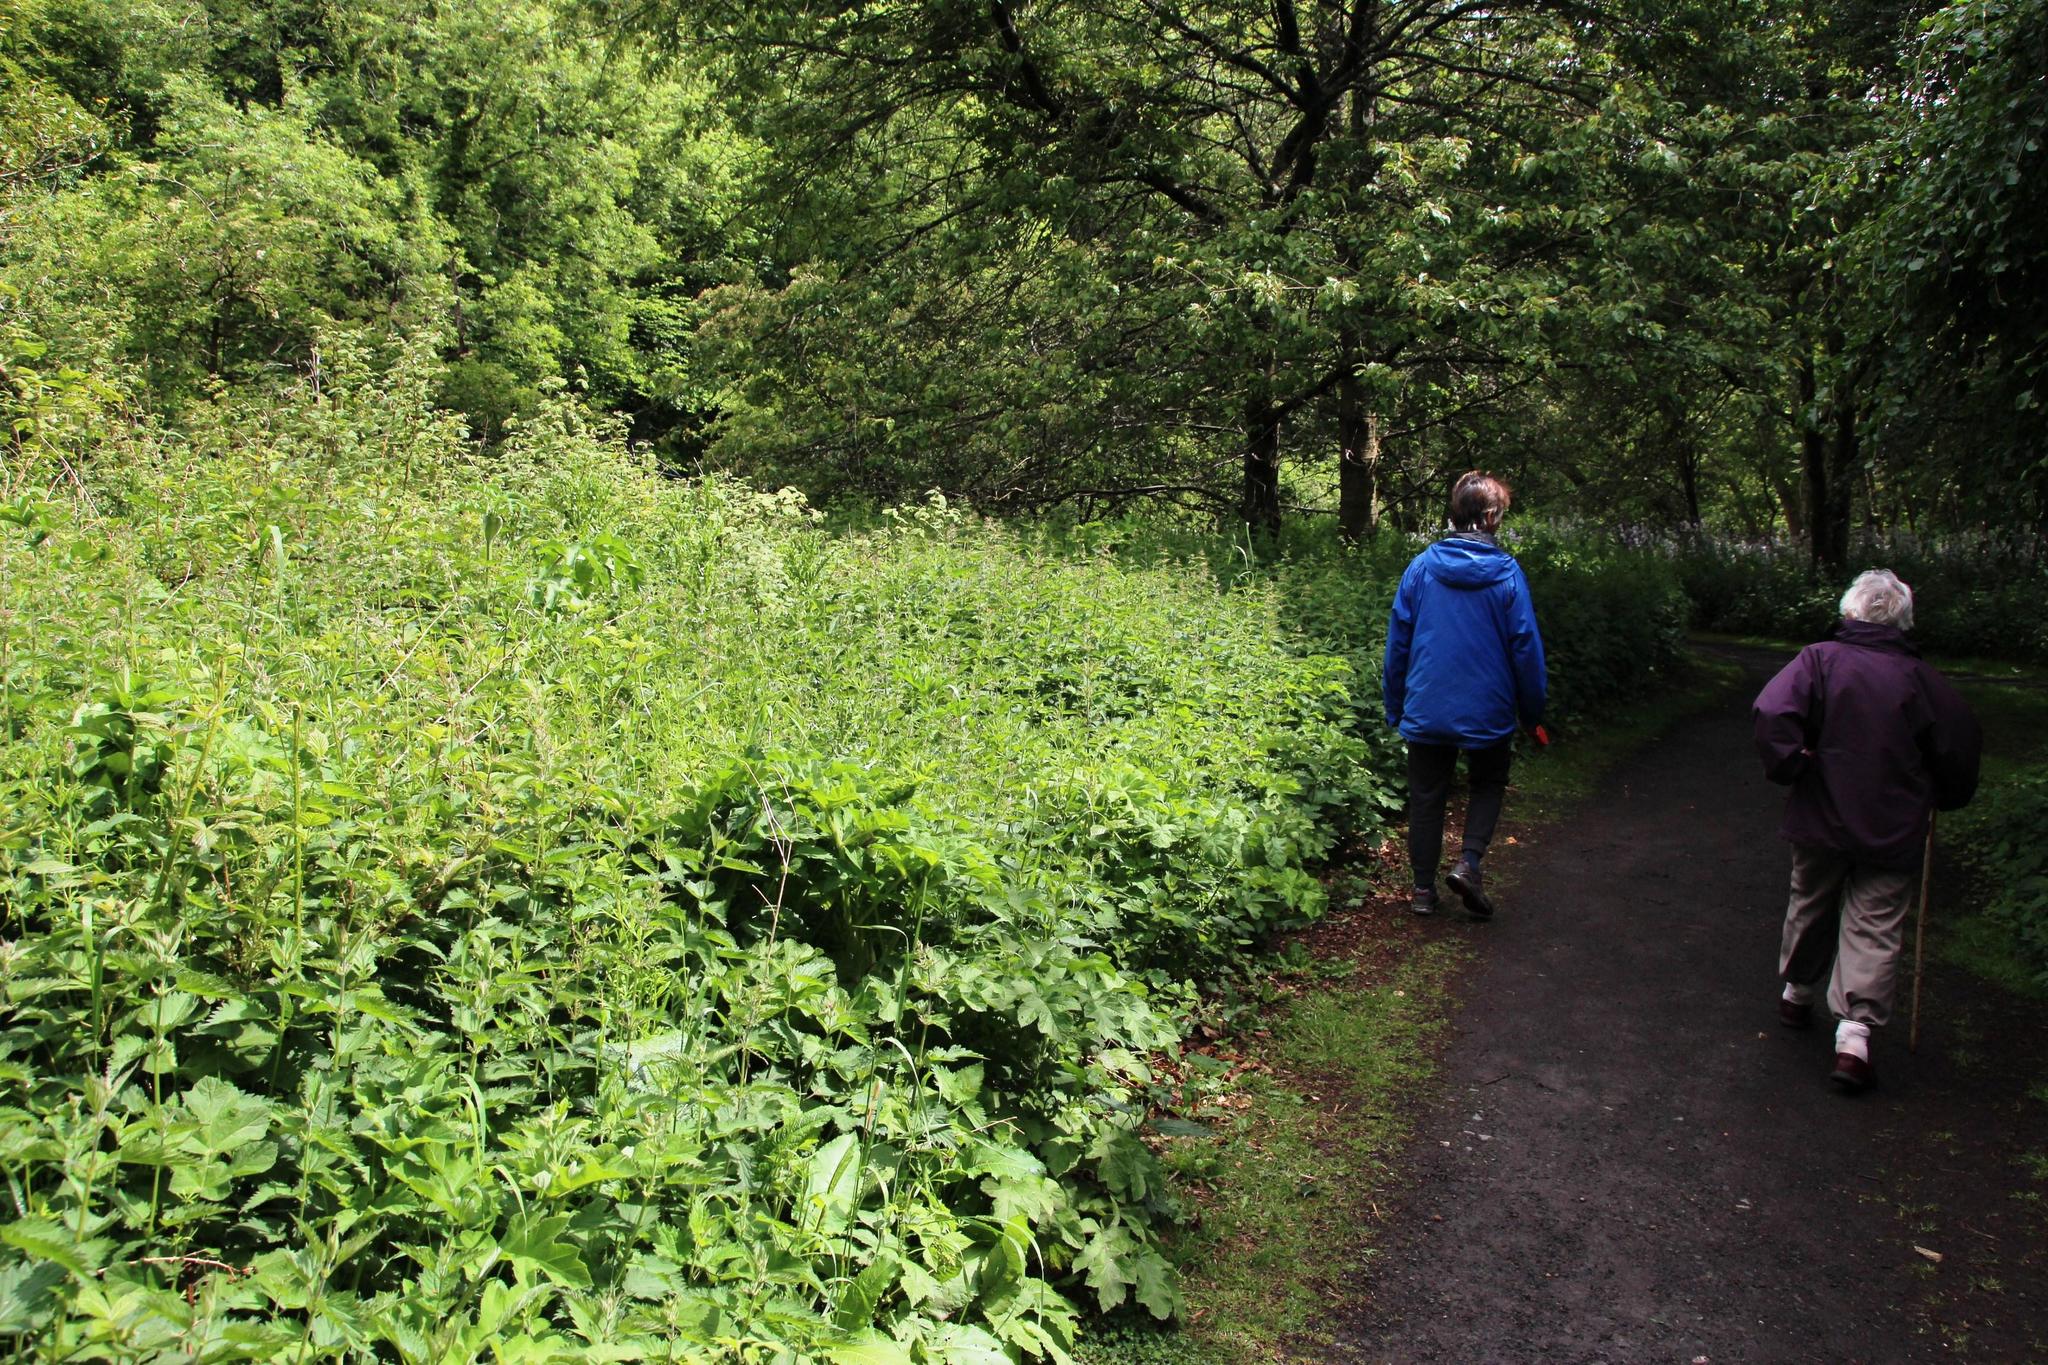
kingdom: Plantae
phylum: Tracheophyta
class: Magnoliopsida
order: Rosales
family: Urticaceae
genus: Urtica
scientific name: Urtica dioica
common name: Common nettle
